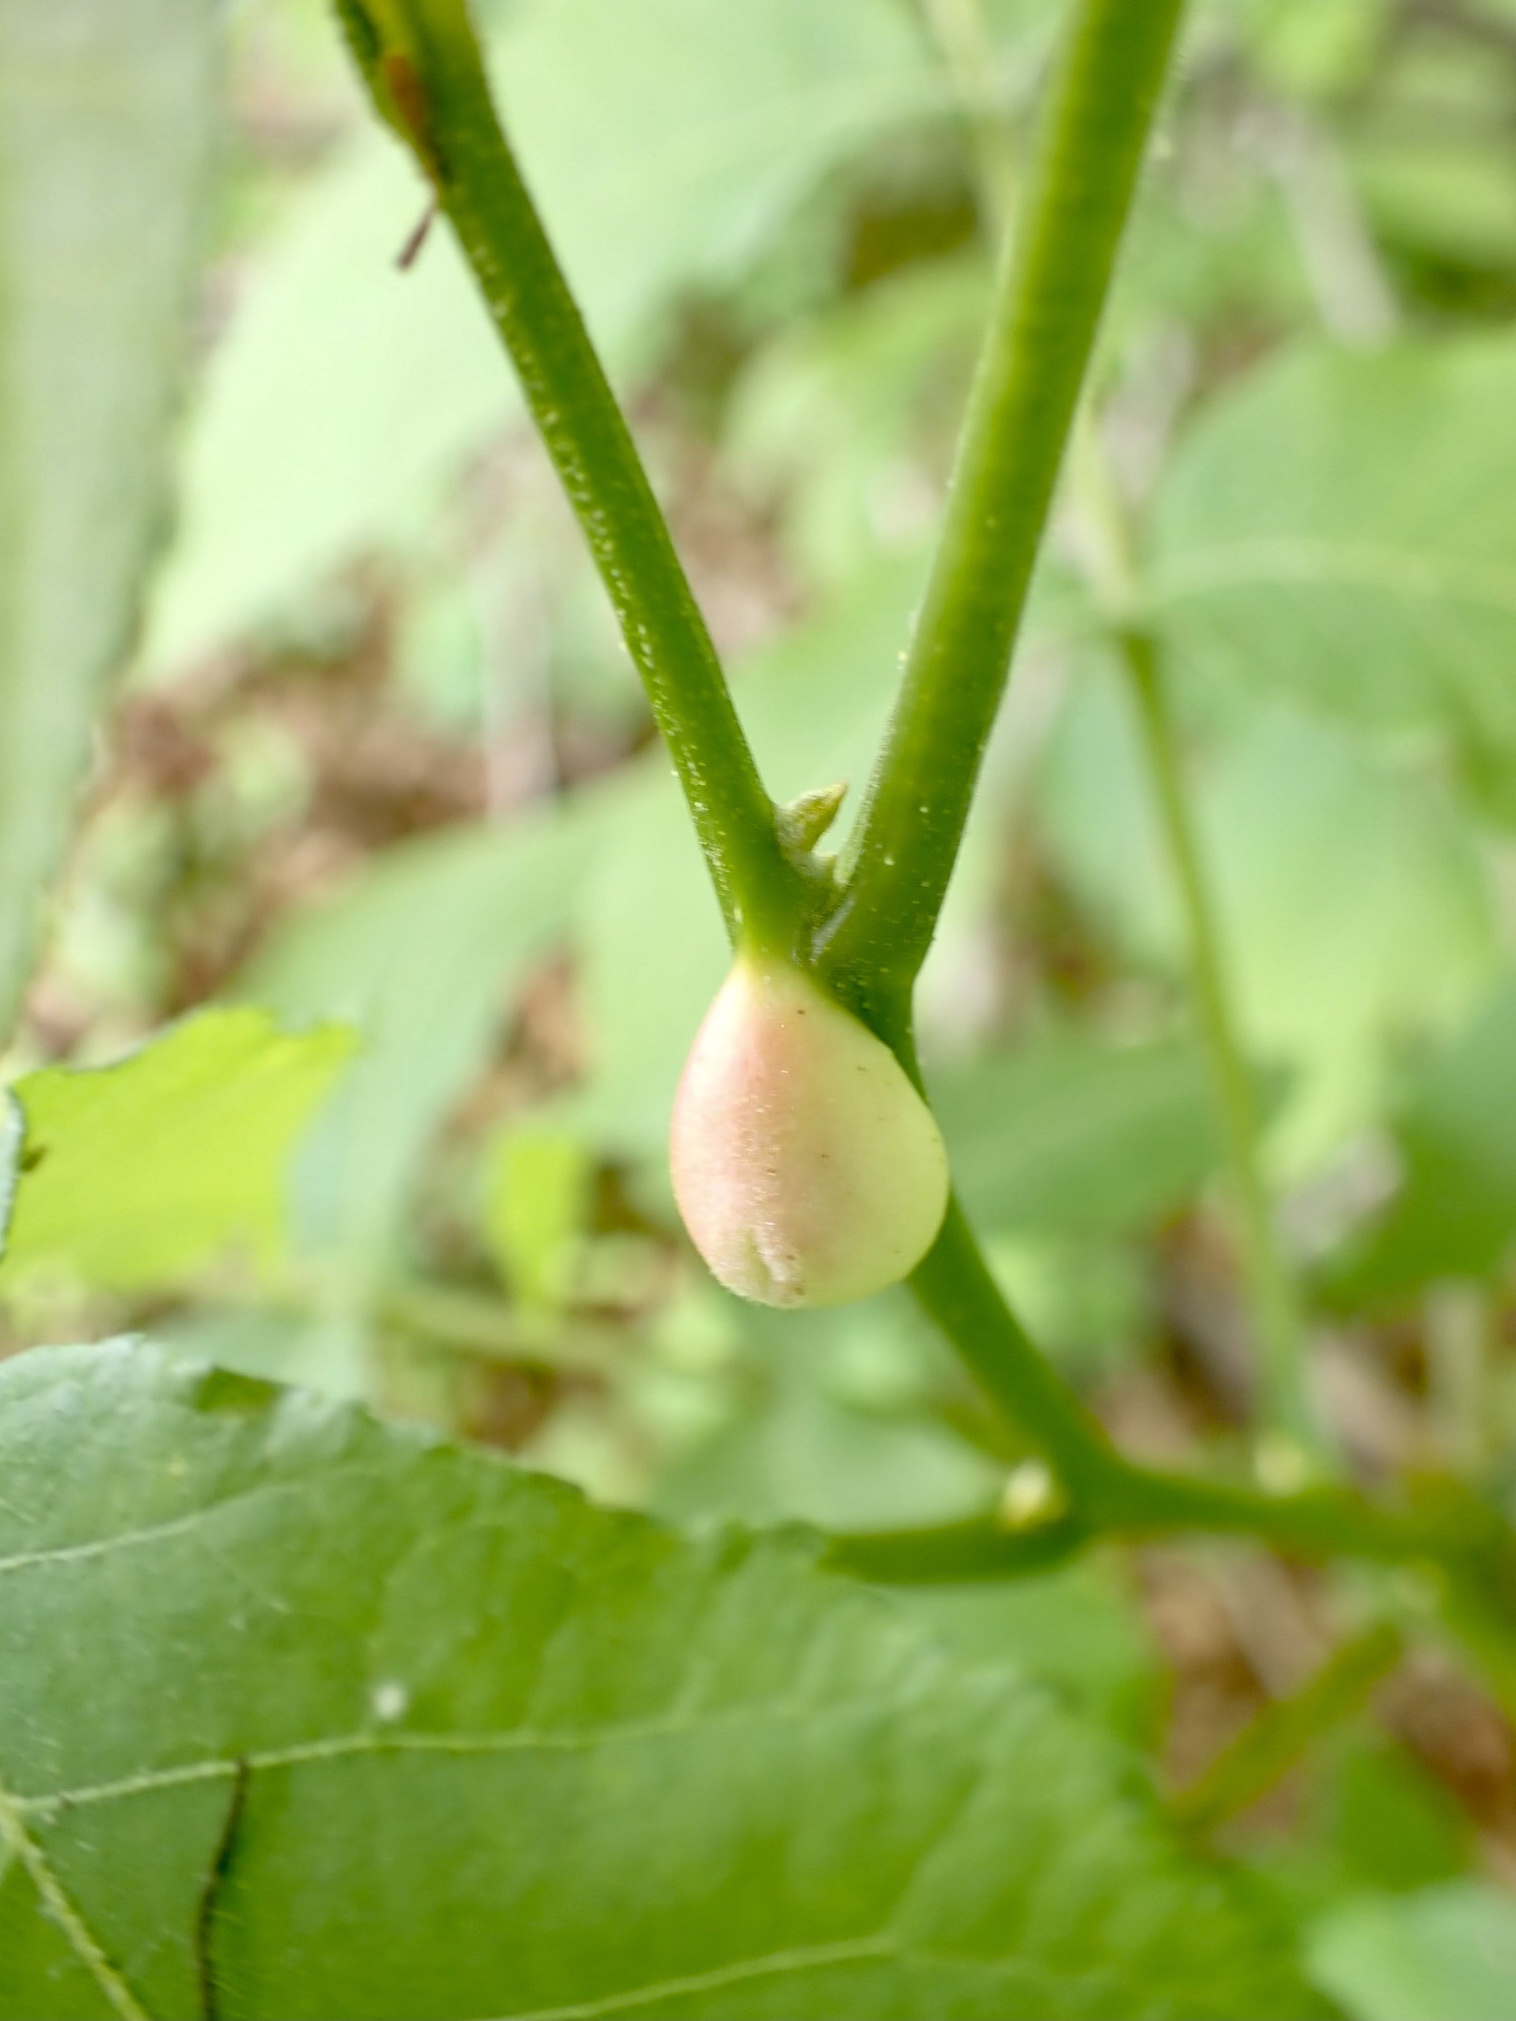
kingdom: Animalia
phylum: Arthropoda
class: Insecta
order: Hemiptera
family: Phylloxeridae
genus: Phylloxera
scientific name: Phylloxera
